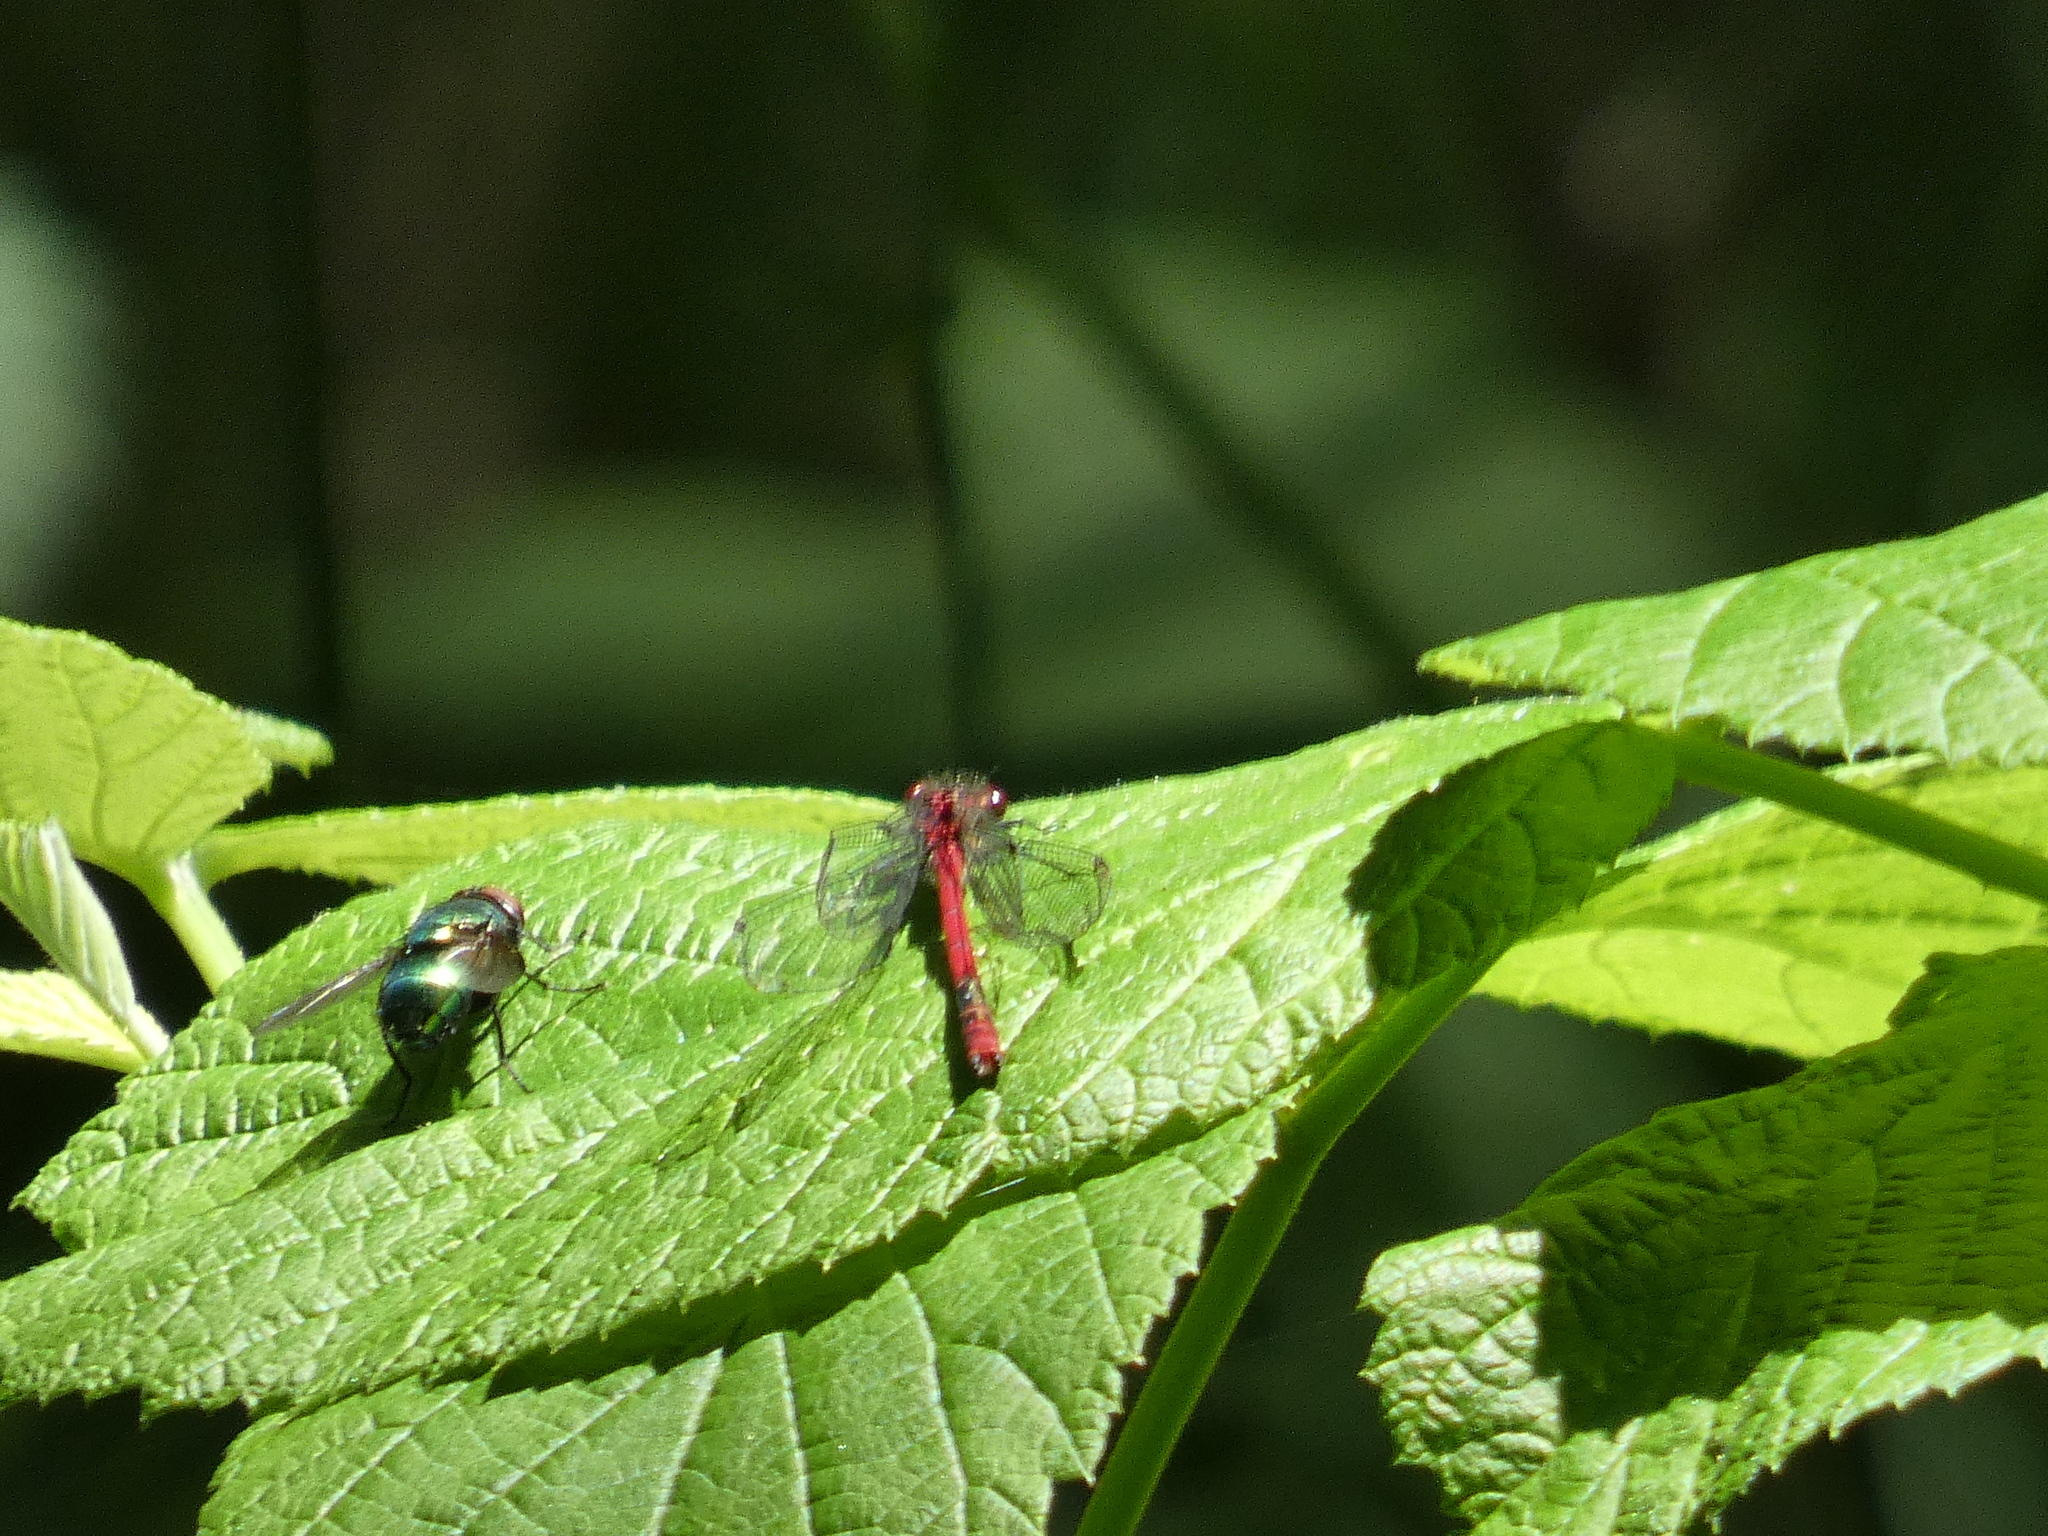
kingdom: Animalia
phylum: Arthropoda
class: Insecta
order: Odonata
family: Coenagrionidae
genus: Pyrrhosoma
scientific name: Pyrrhosoma nymphula
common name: Large red damsel
